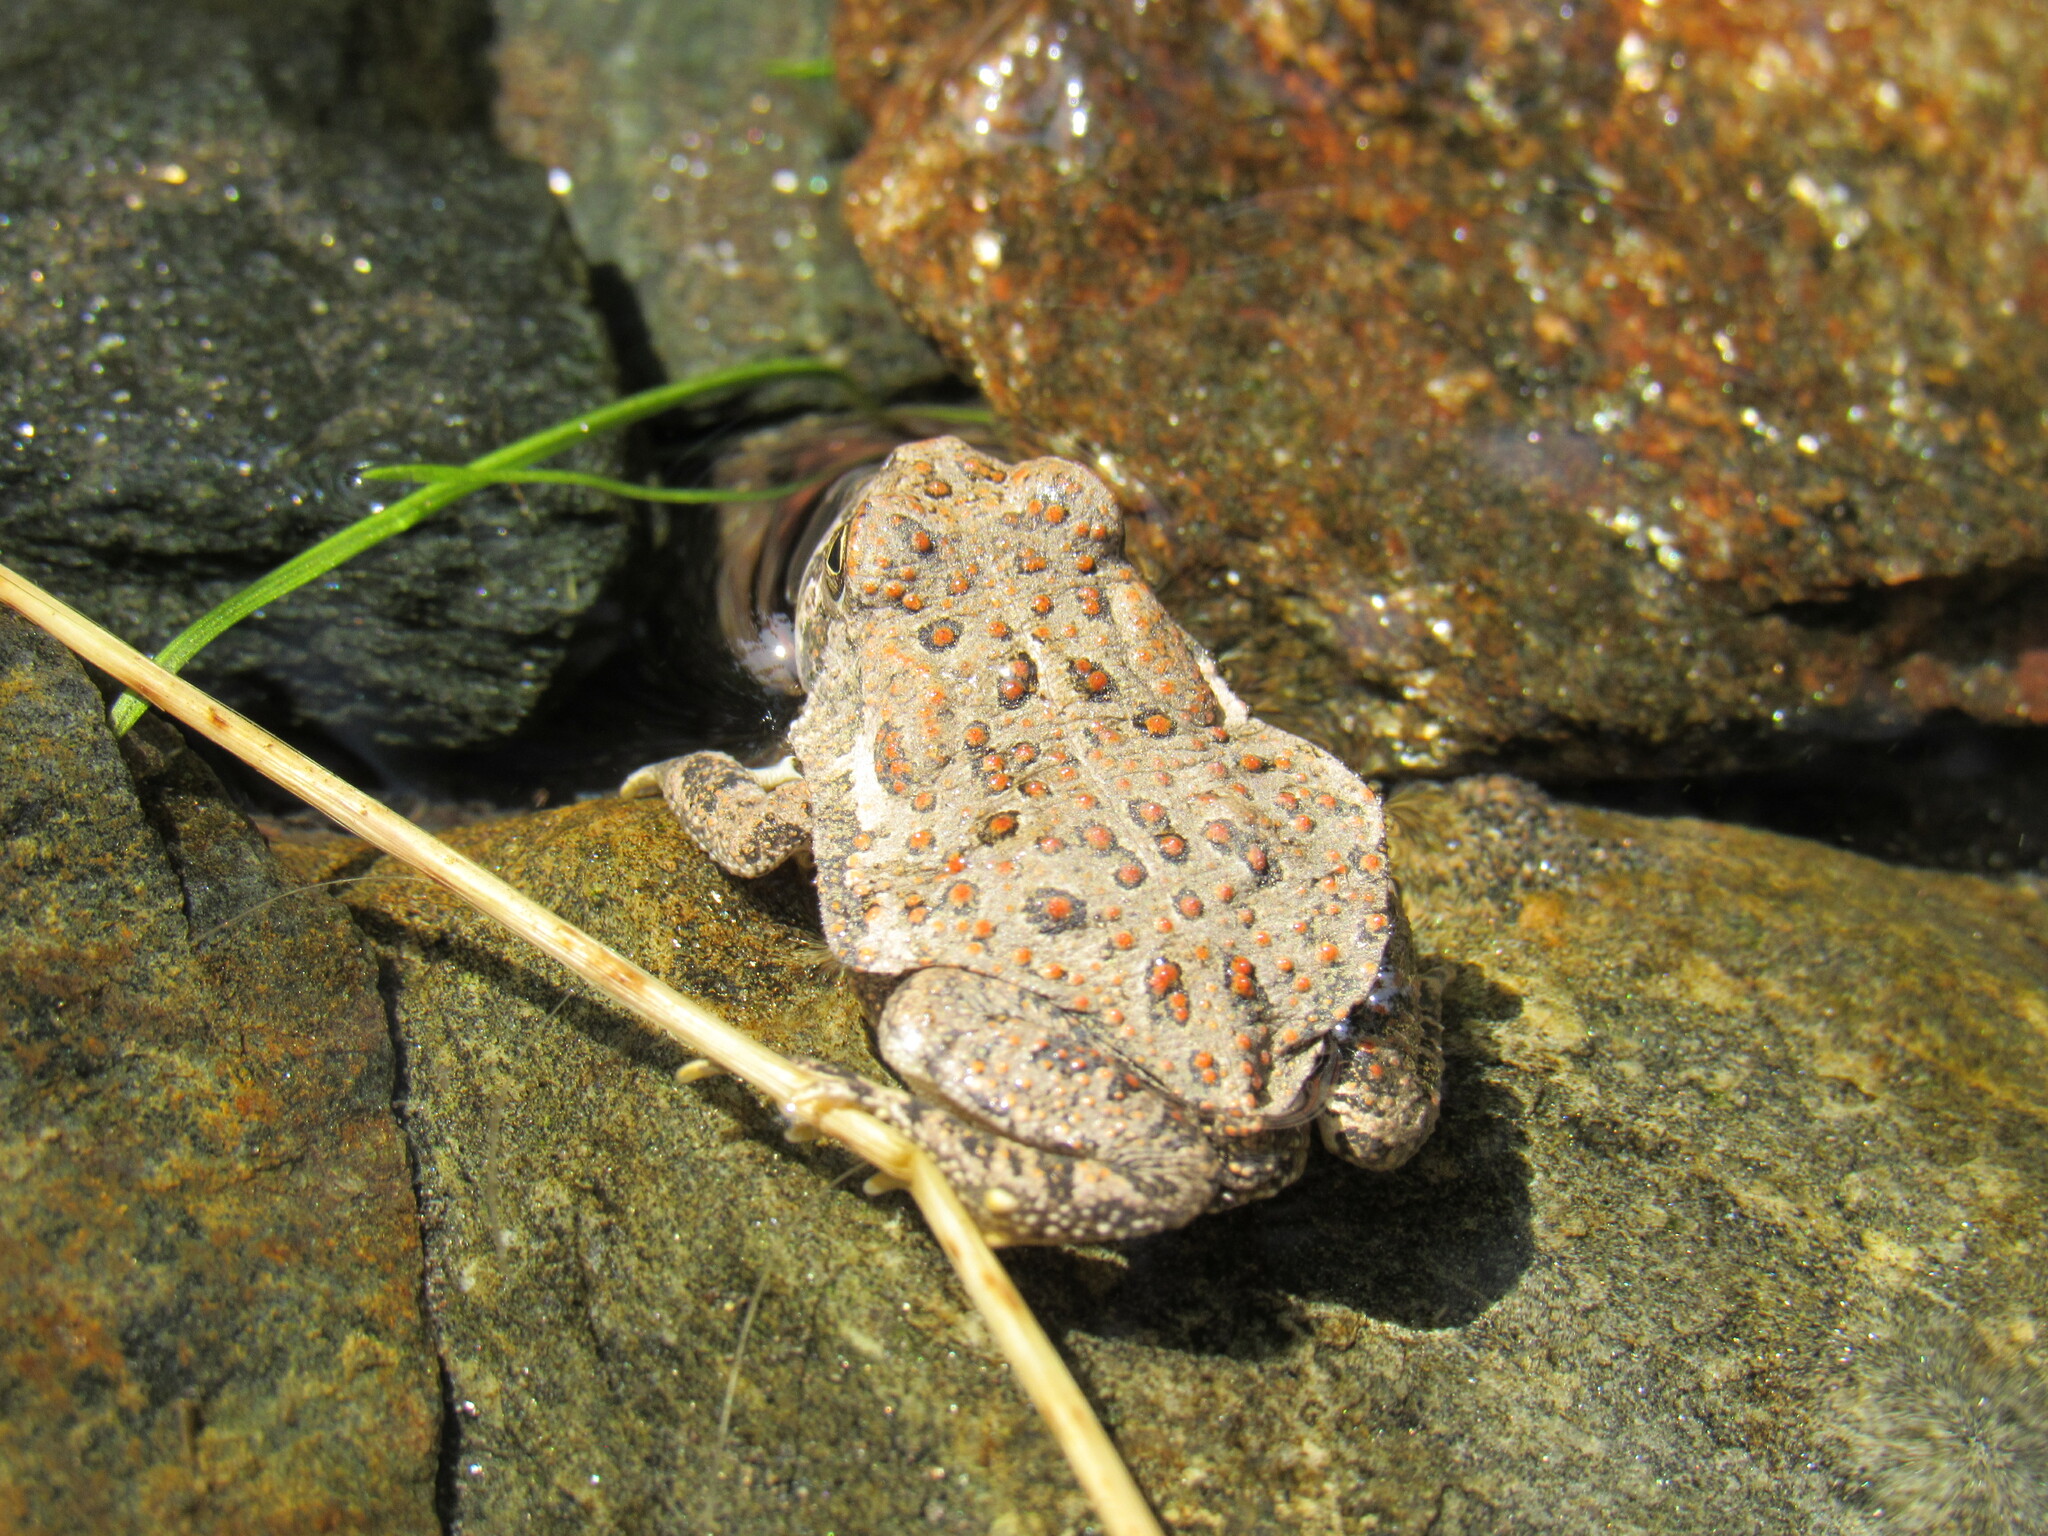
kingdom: Animalia
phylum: Chordata
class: Amphibia
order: Anura
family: Bufonidae
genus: Anaxyrus
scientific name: Anaxyrus woodhousii
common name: Woodhouse's toad
